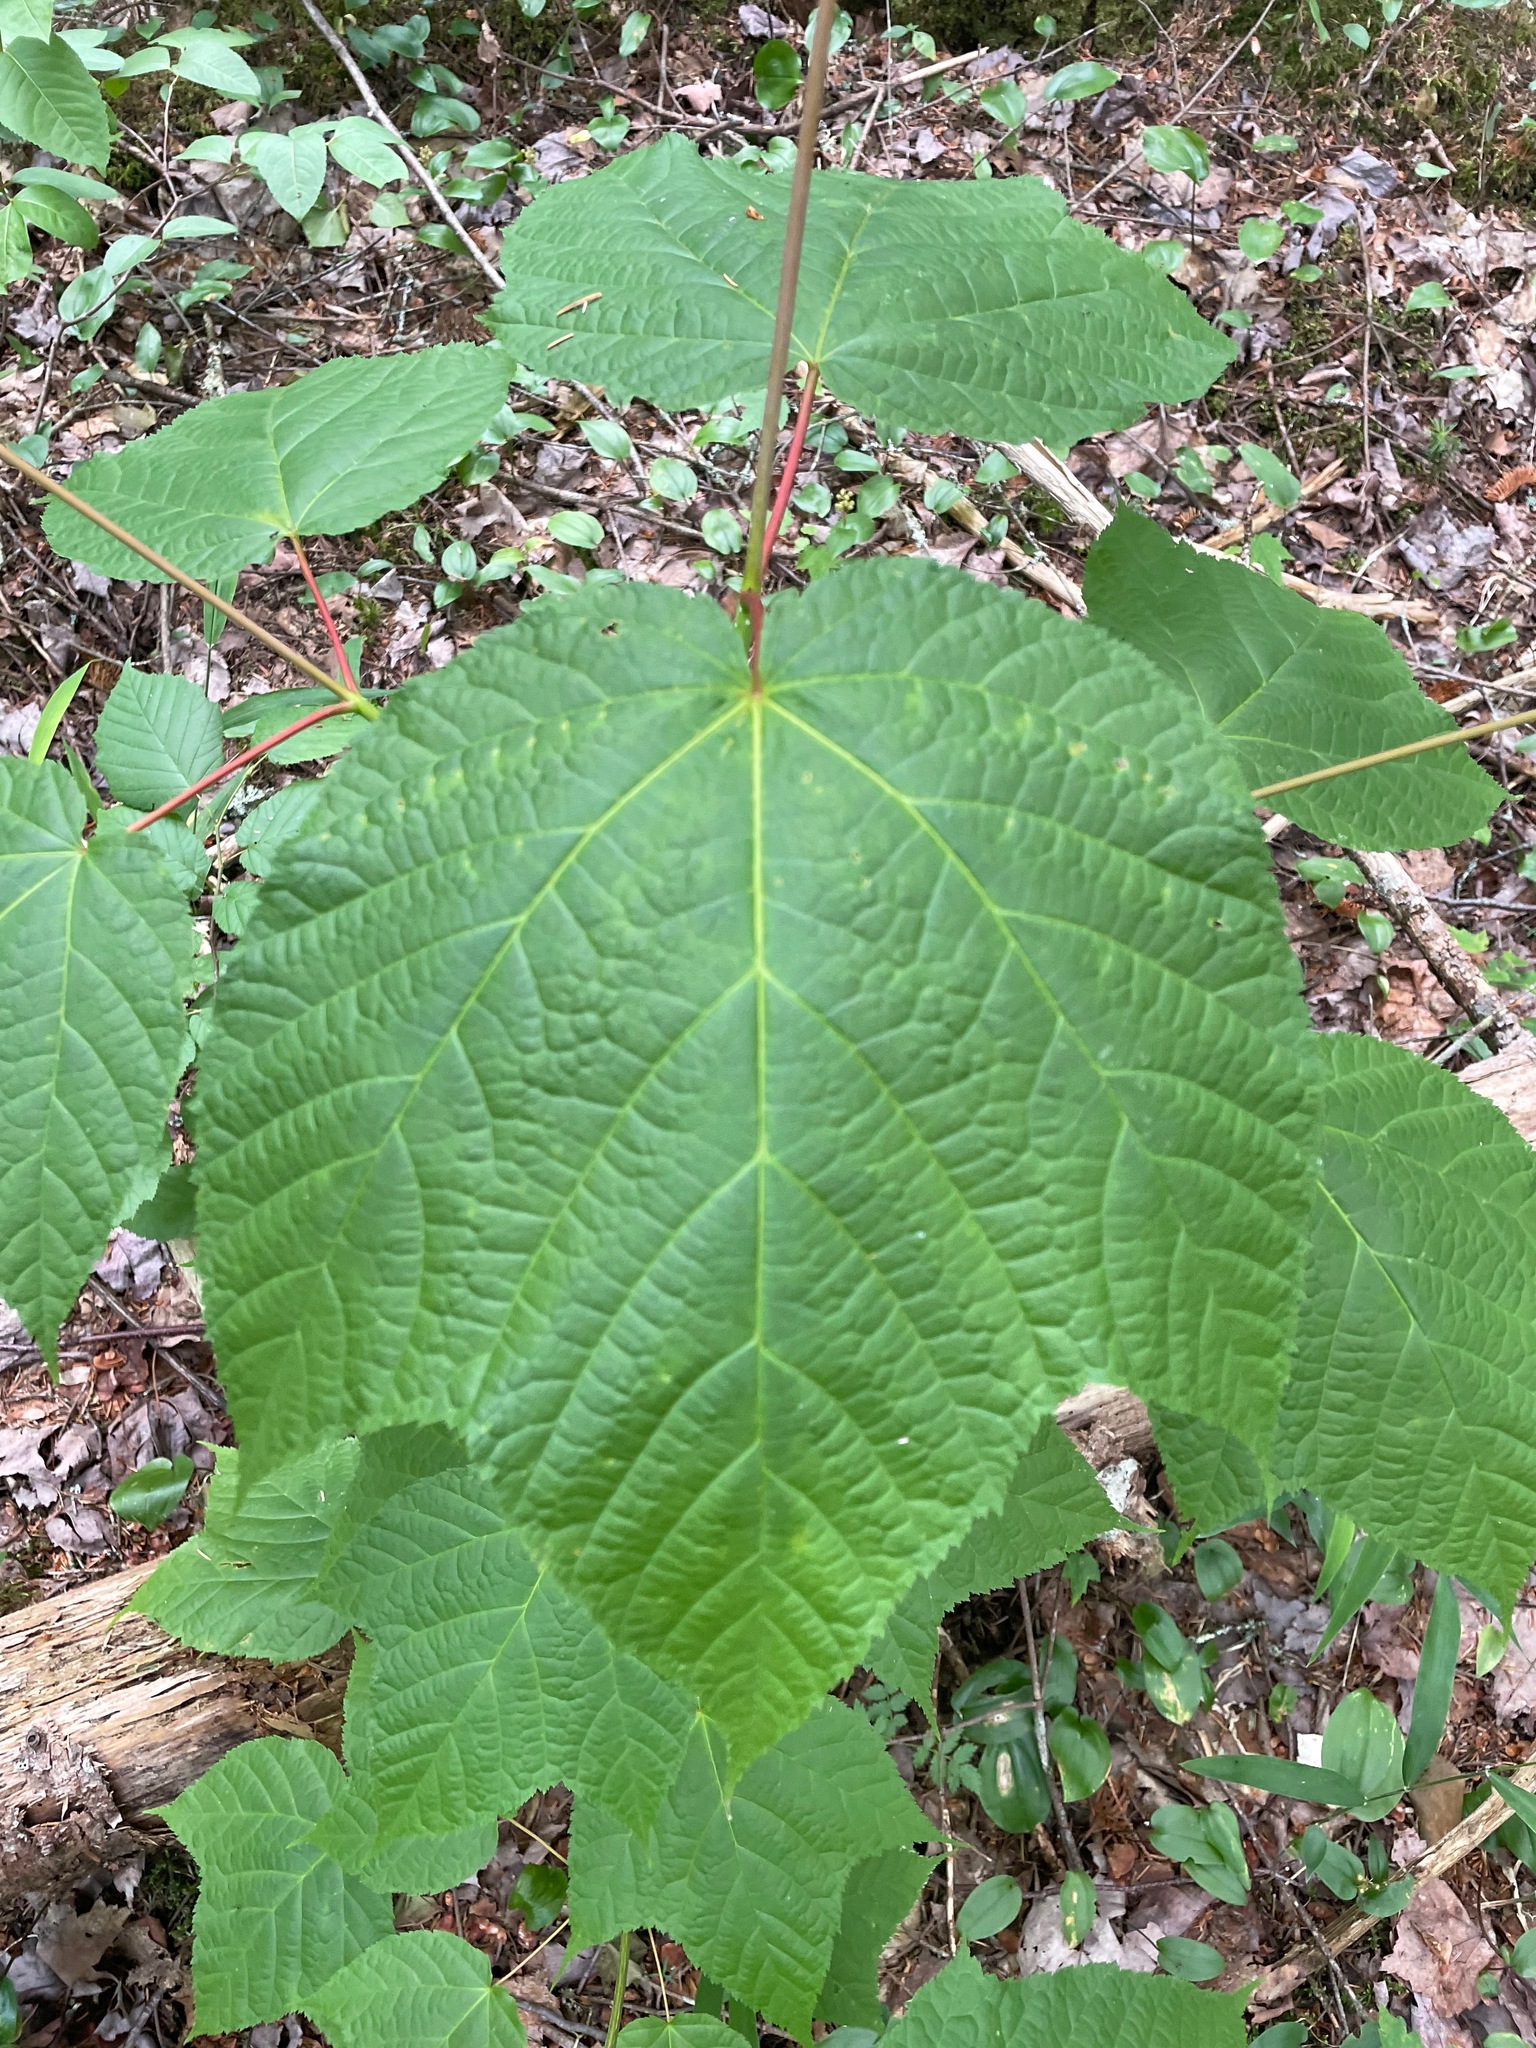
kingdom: Plantae
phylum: Tracheophyta
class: Magnoliopsida
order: Sapindales
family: Sapindaceae
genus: Acer
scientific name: Acer pensylvanicum
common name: Moosewood
